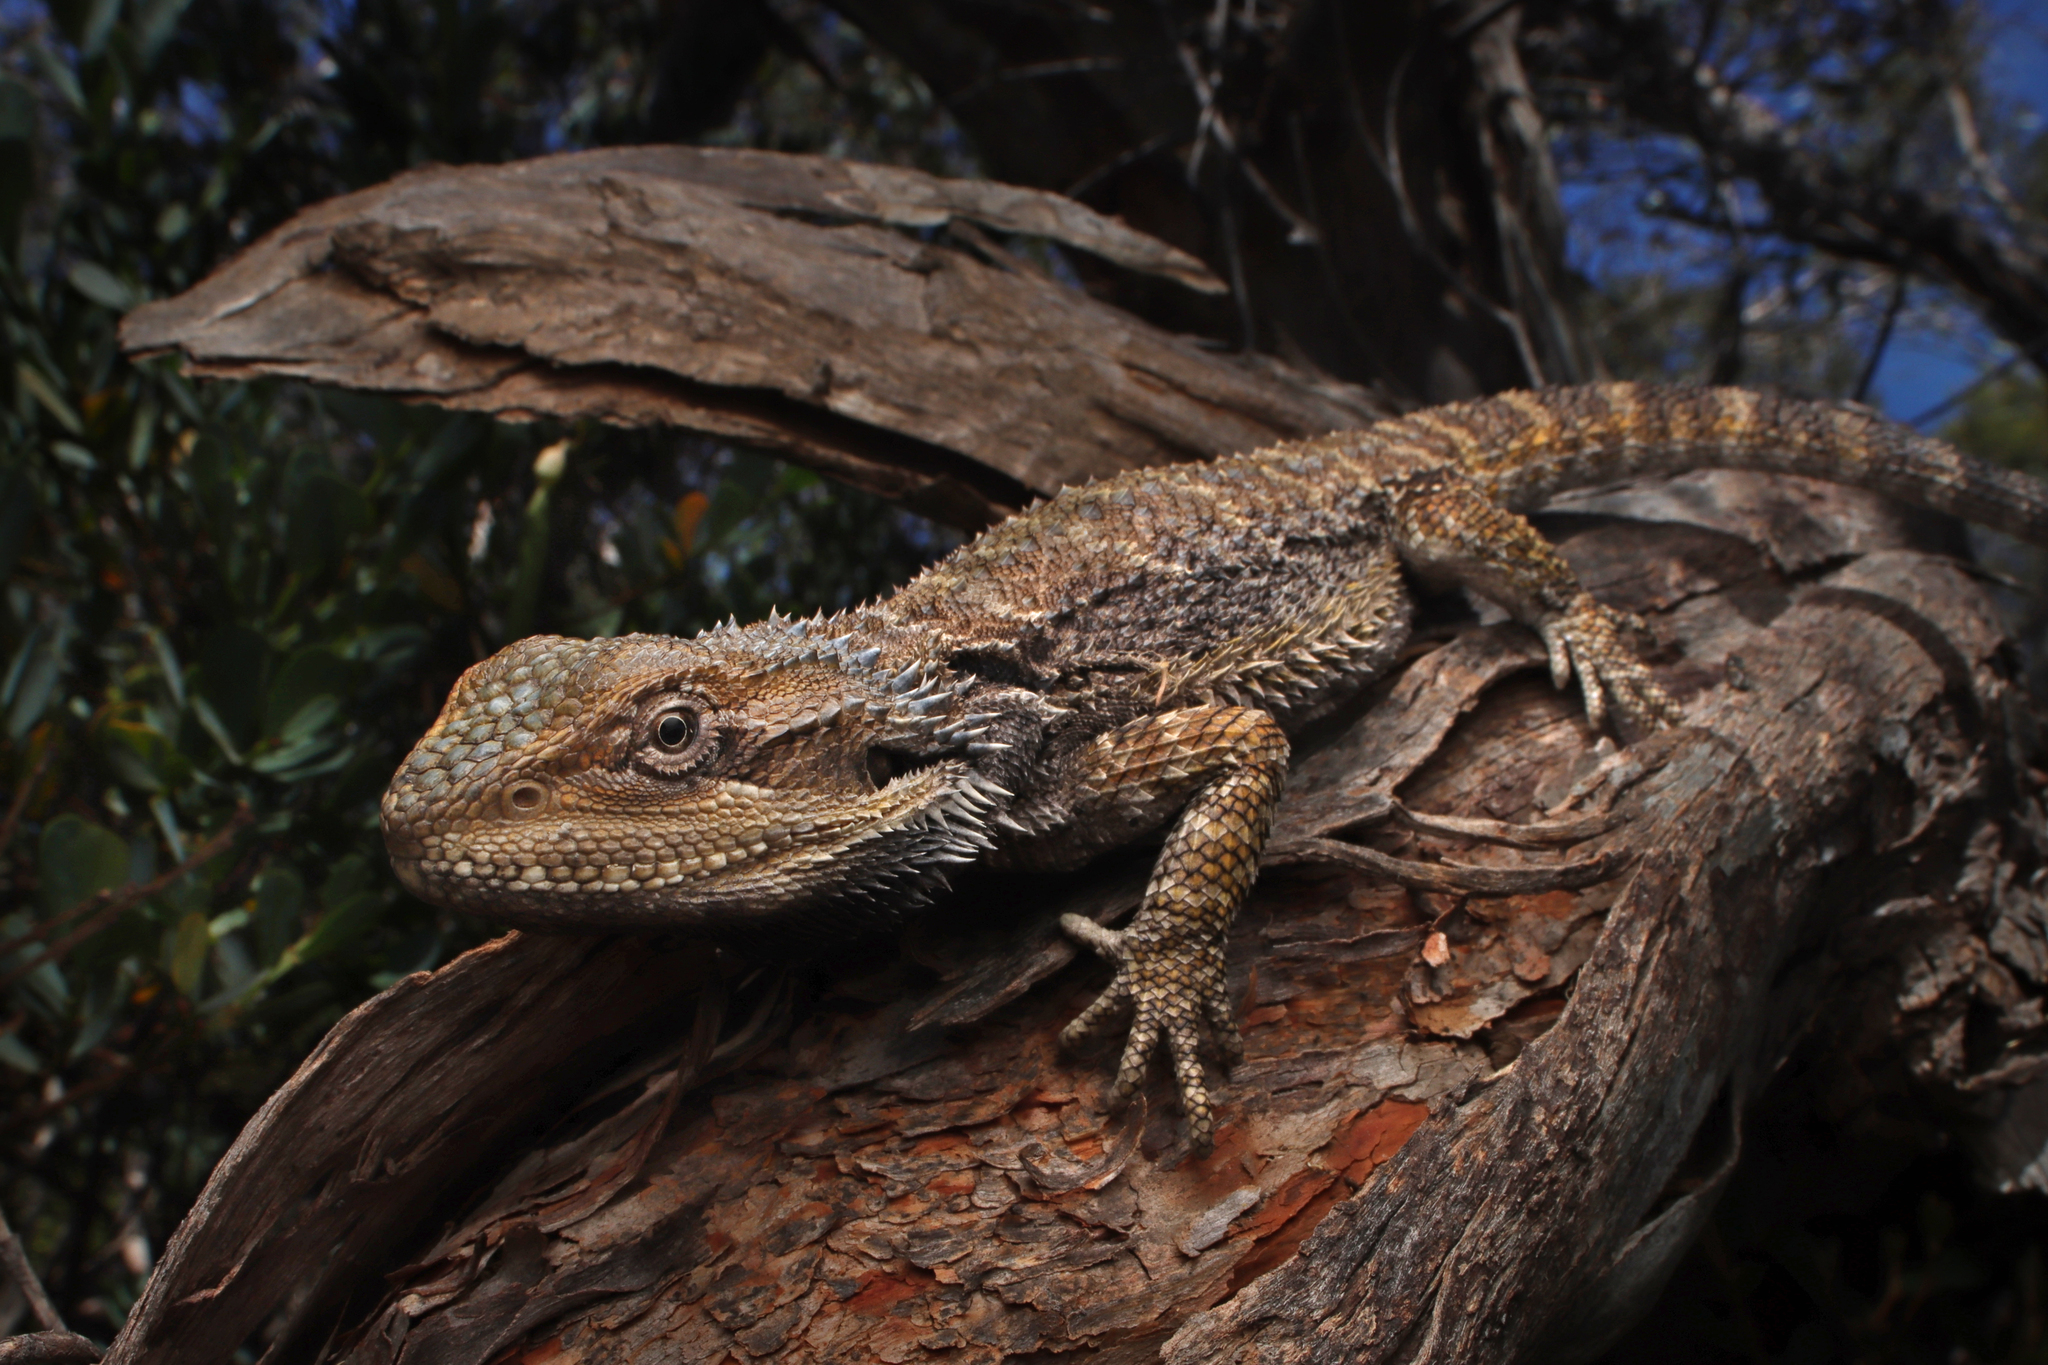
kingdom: Animalia
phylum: Chordata
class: Squamata
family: Agamidae
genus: Pogona
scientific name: Pogona barbata
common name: Bearded dragon
